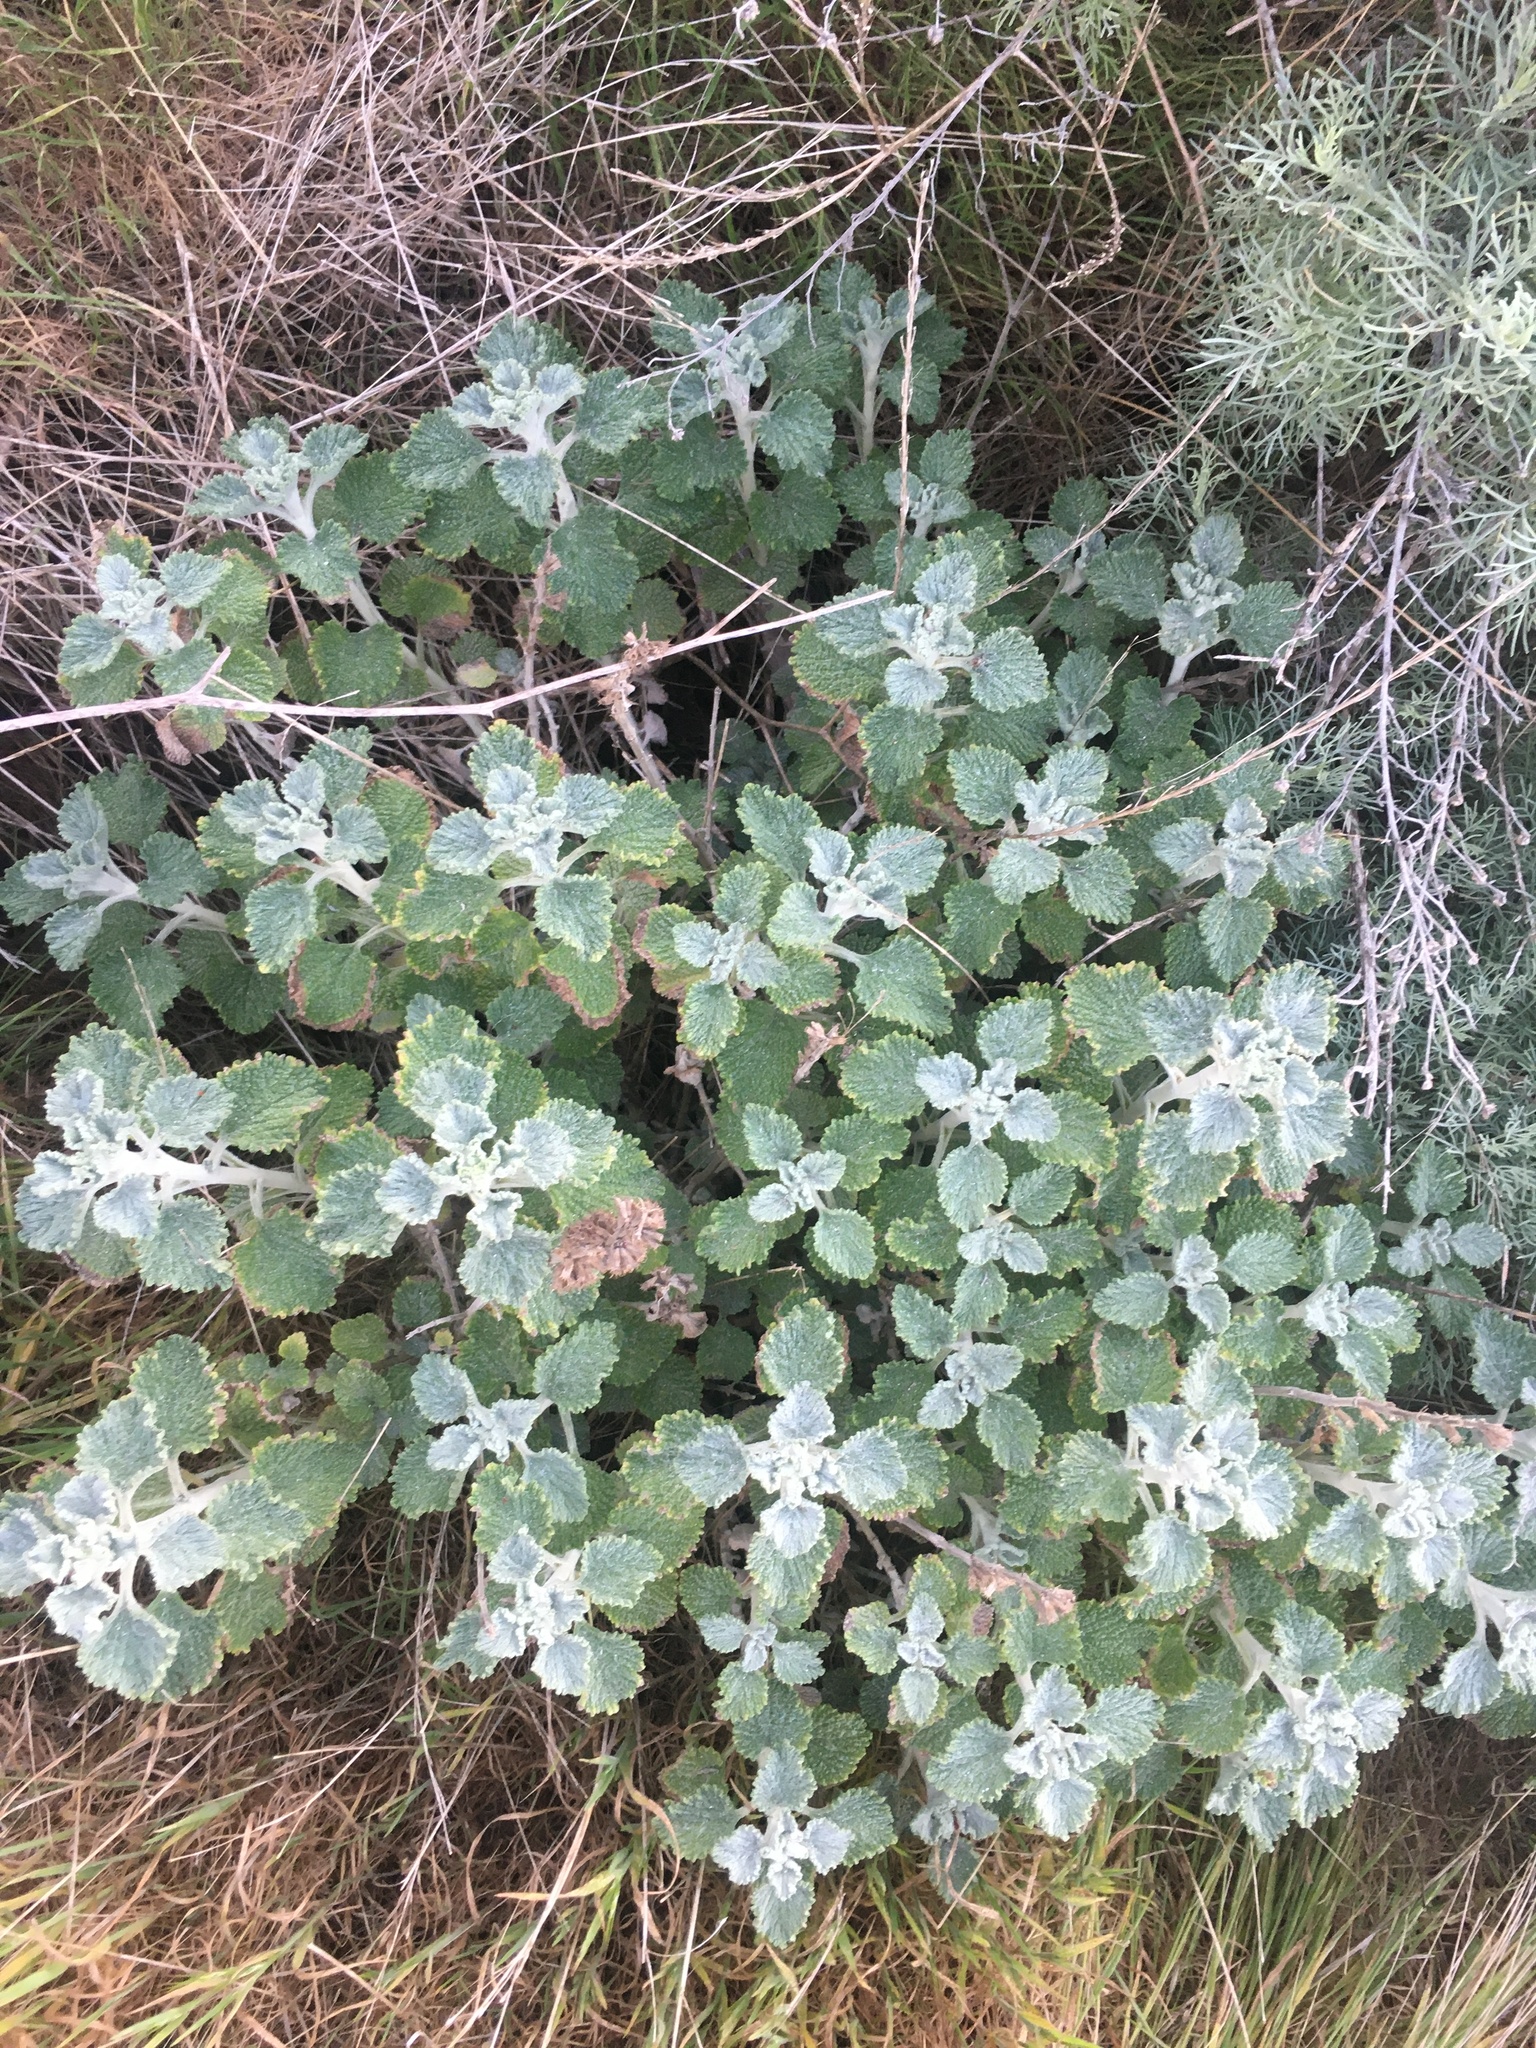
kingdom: Plantae
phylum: Tracheophyta
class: Magnoliopsida
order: Lamiales
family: Lamiaceae
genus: Marrubium
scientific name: Marrubium vulgare
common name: Horehound
